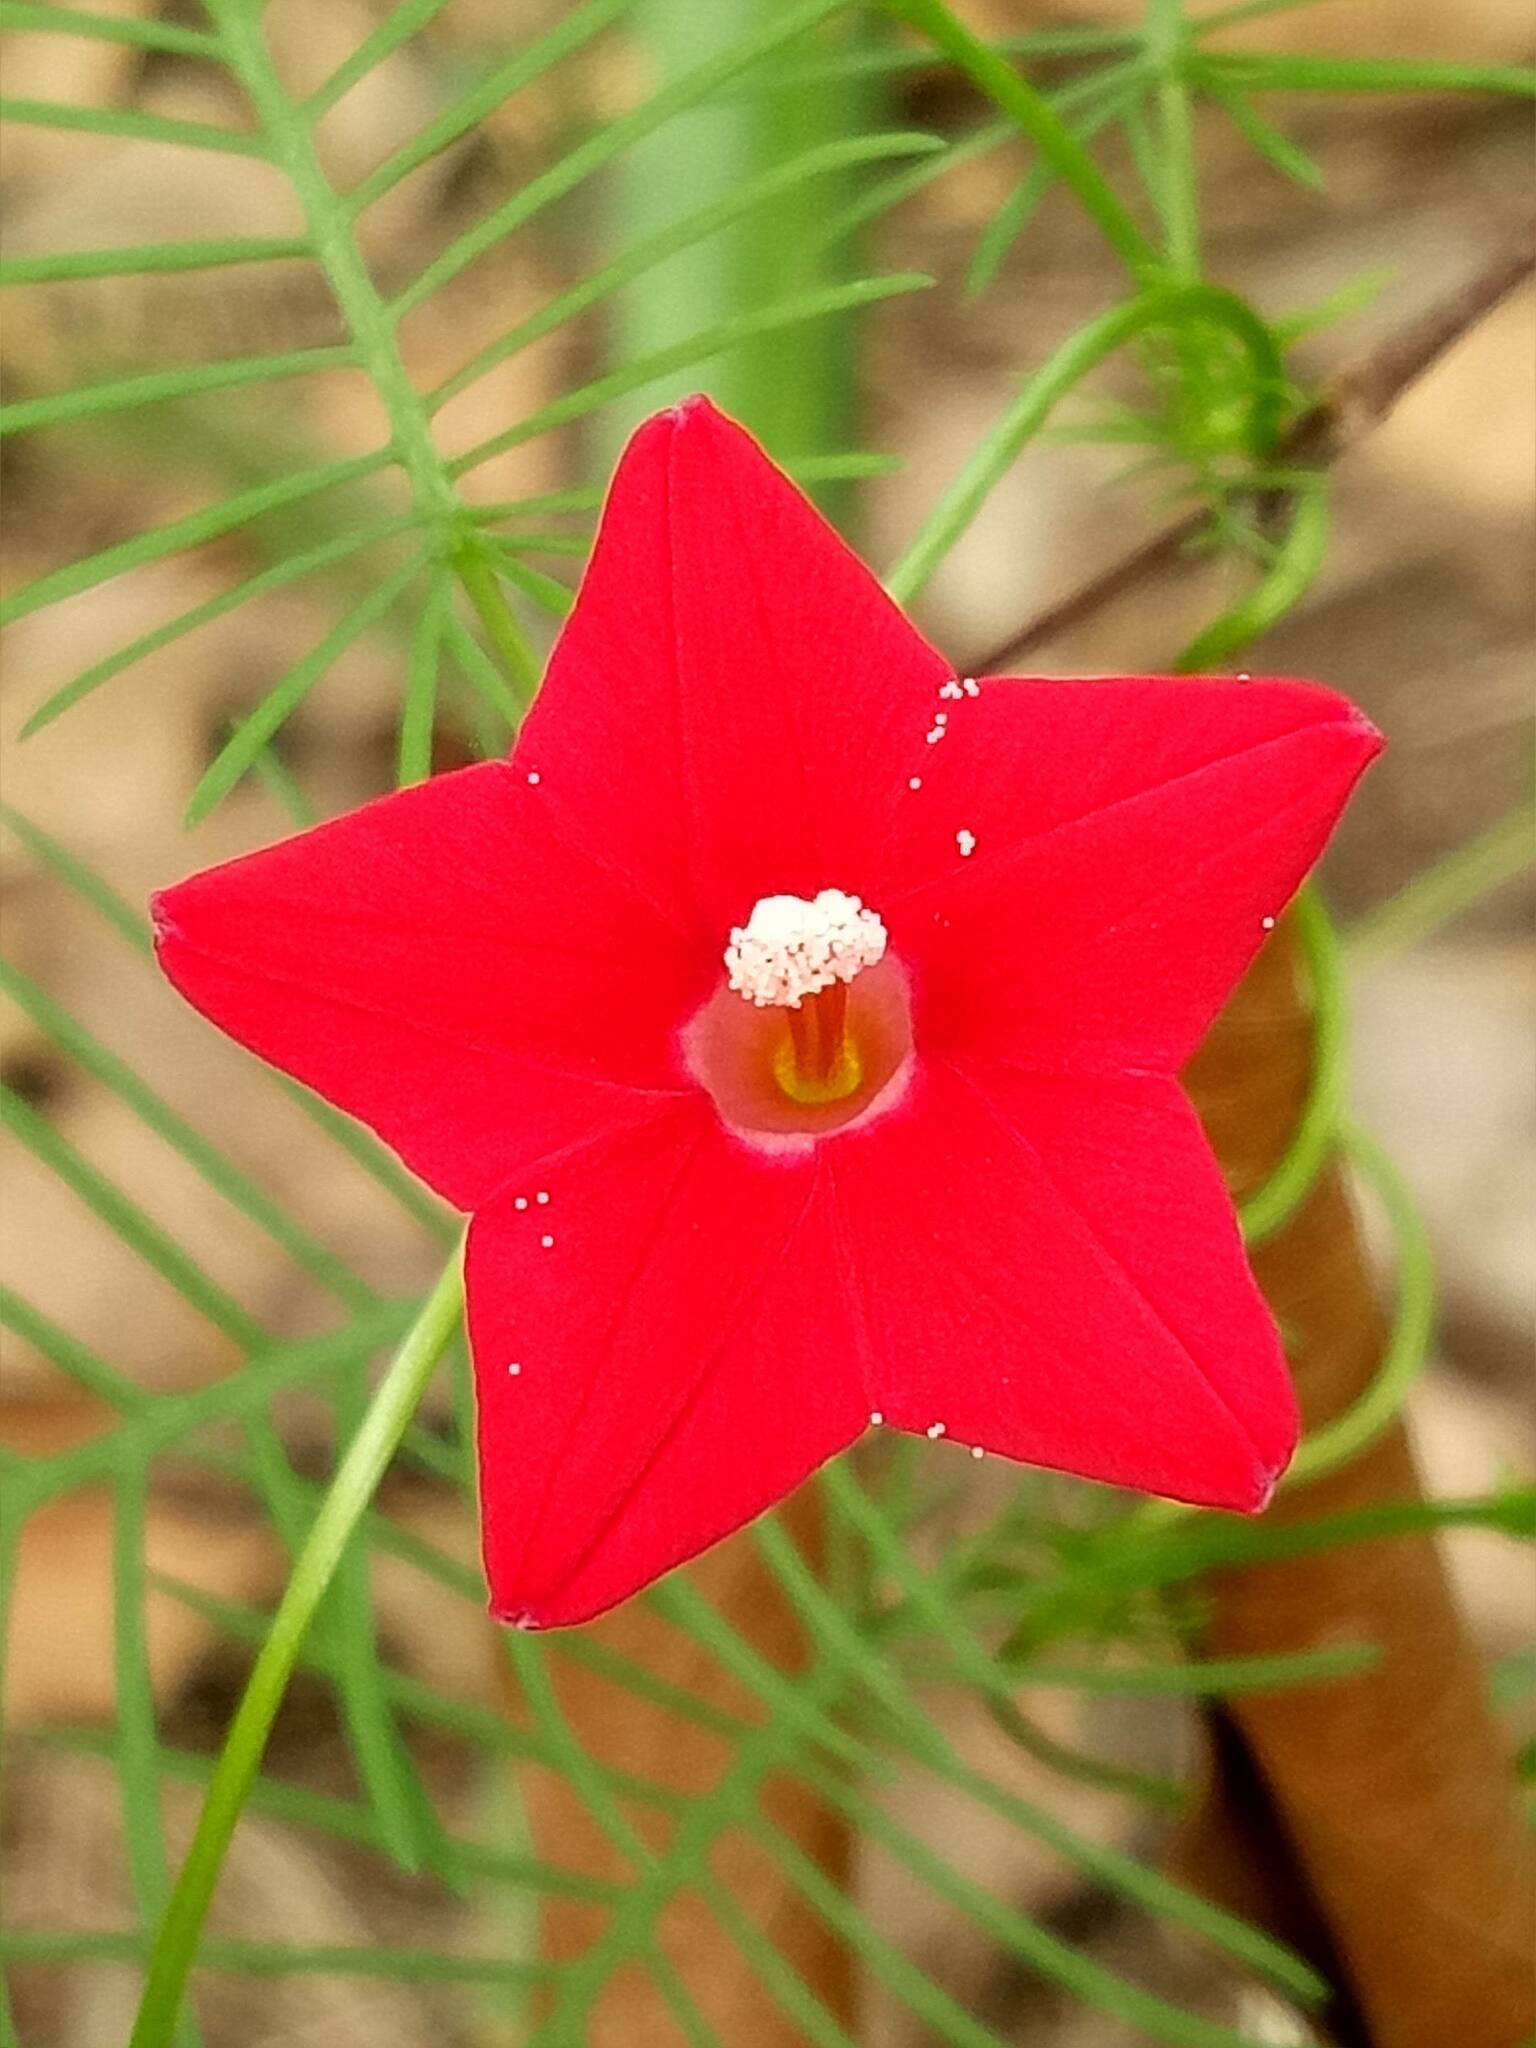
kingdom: Plantae
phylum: Tracheophyta
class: Magnoliopsida
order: Solanales
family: Convolvulaceae
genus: Ipomoea
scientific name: Ipomoea quamoclit
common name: Cypress vine
